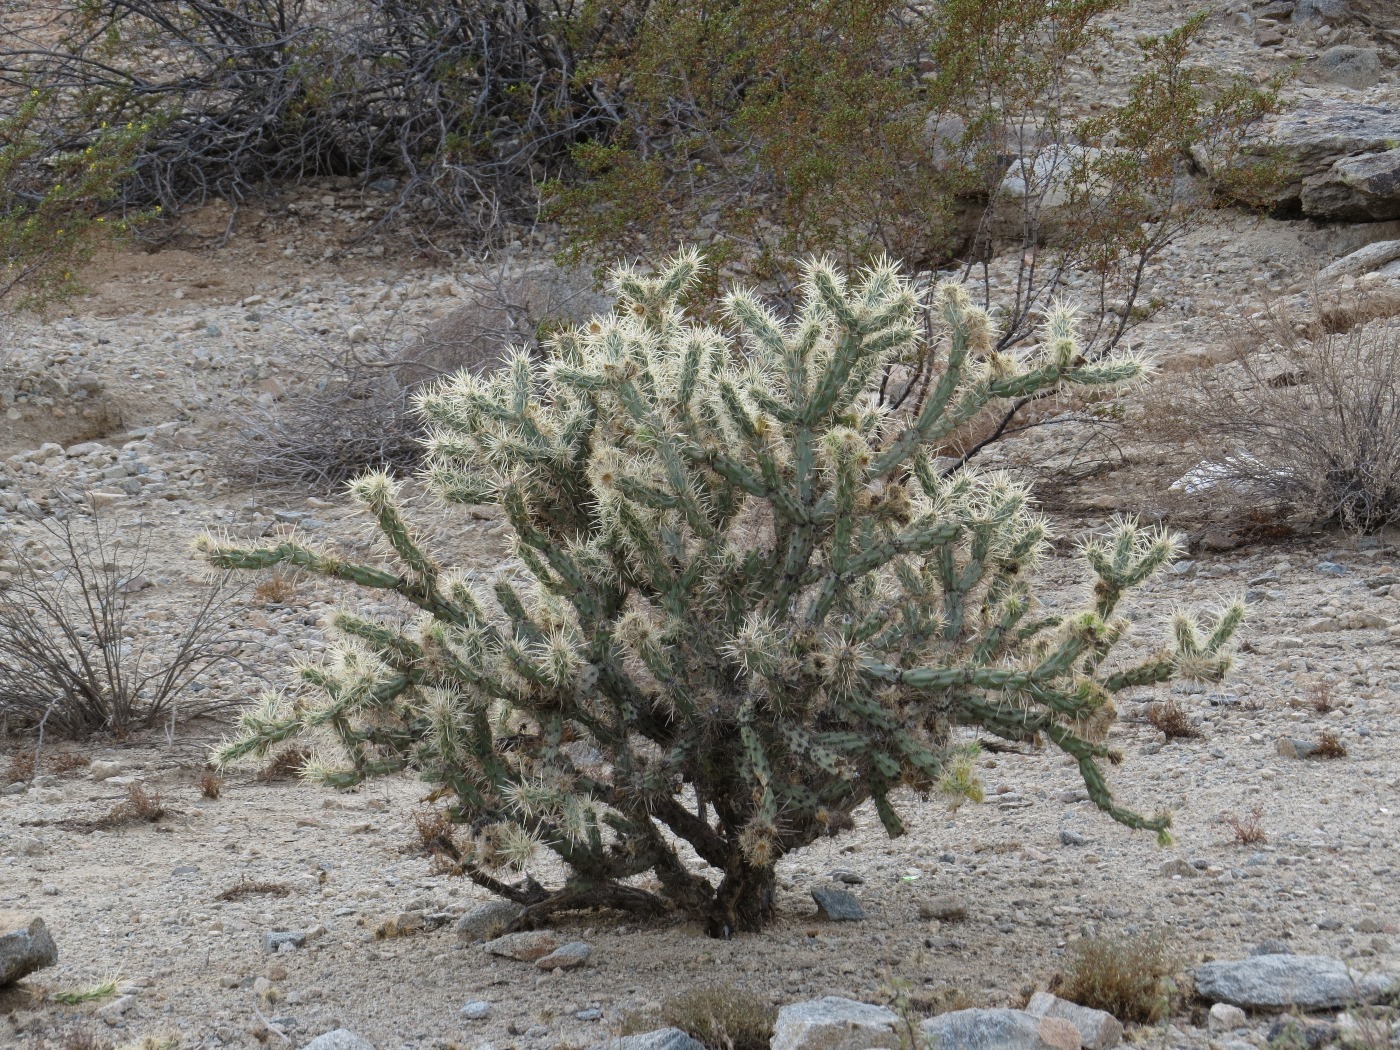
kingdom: Plantae
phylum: Tracheophyta
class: Magnoliopsida
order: Caryophyllales
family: Cactaceae
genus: Cylindropuntia
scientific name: Cylindropuntia acanthocarpa
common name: Buckhorn cholla
